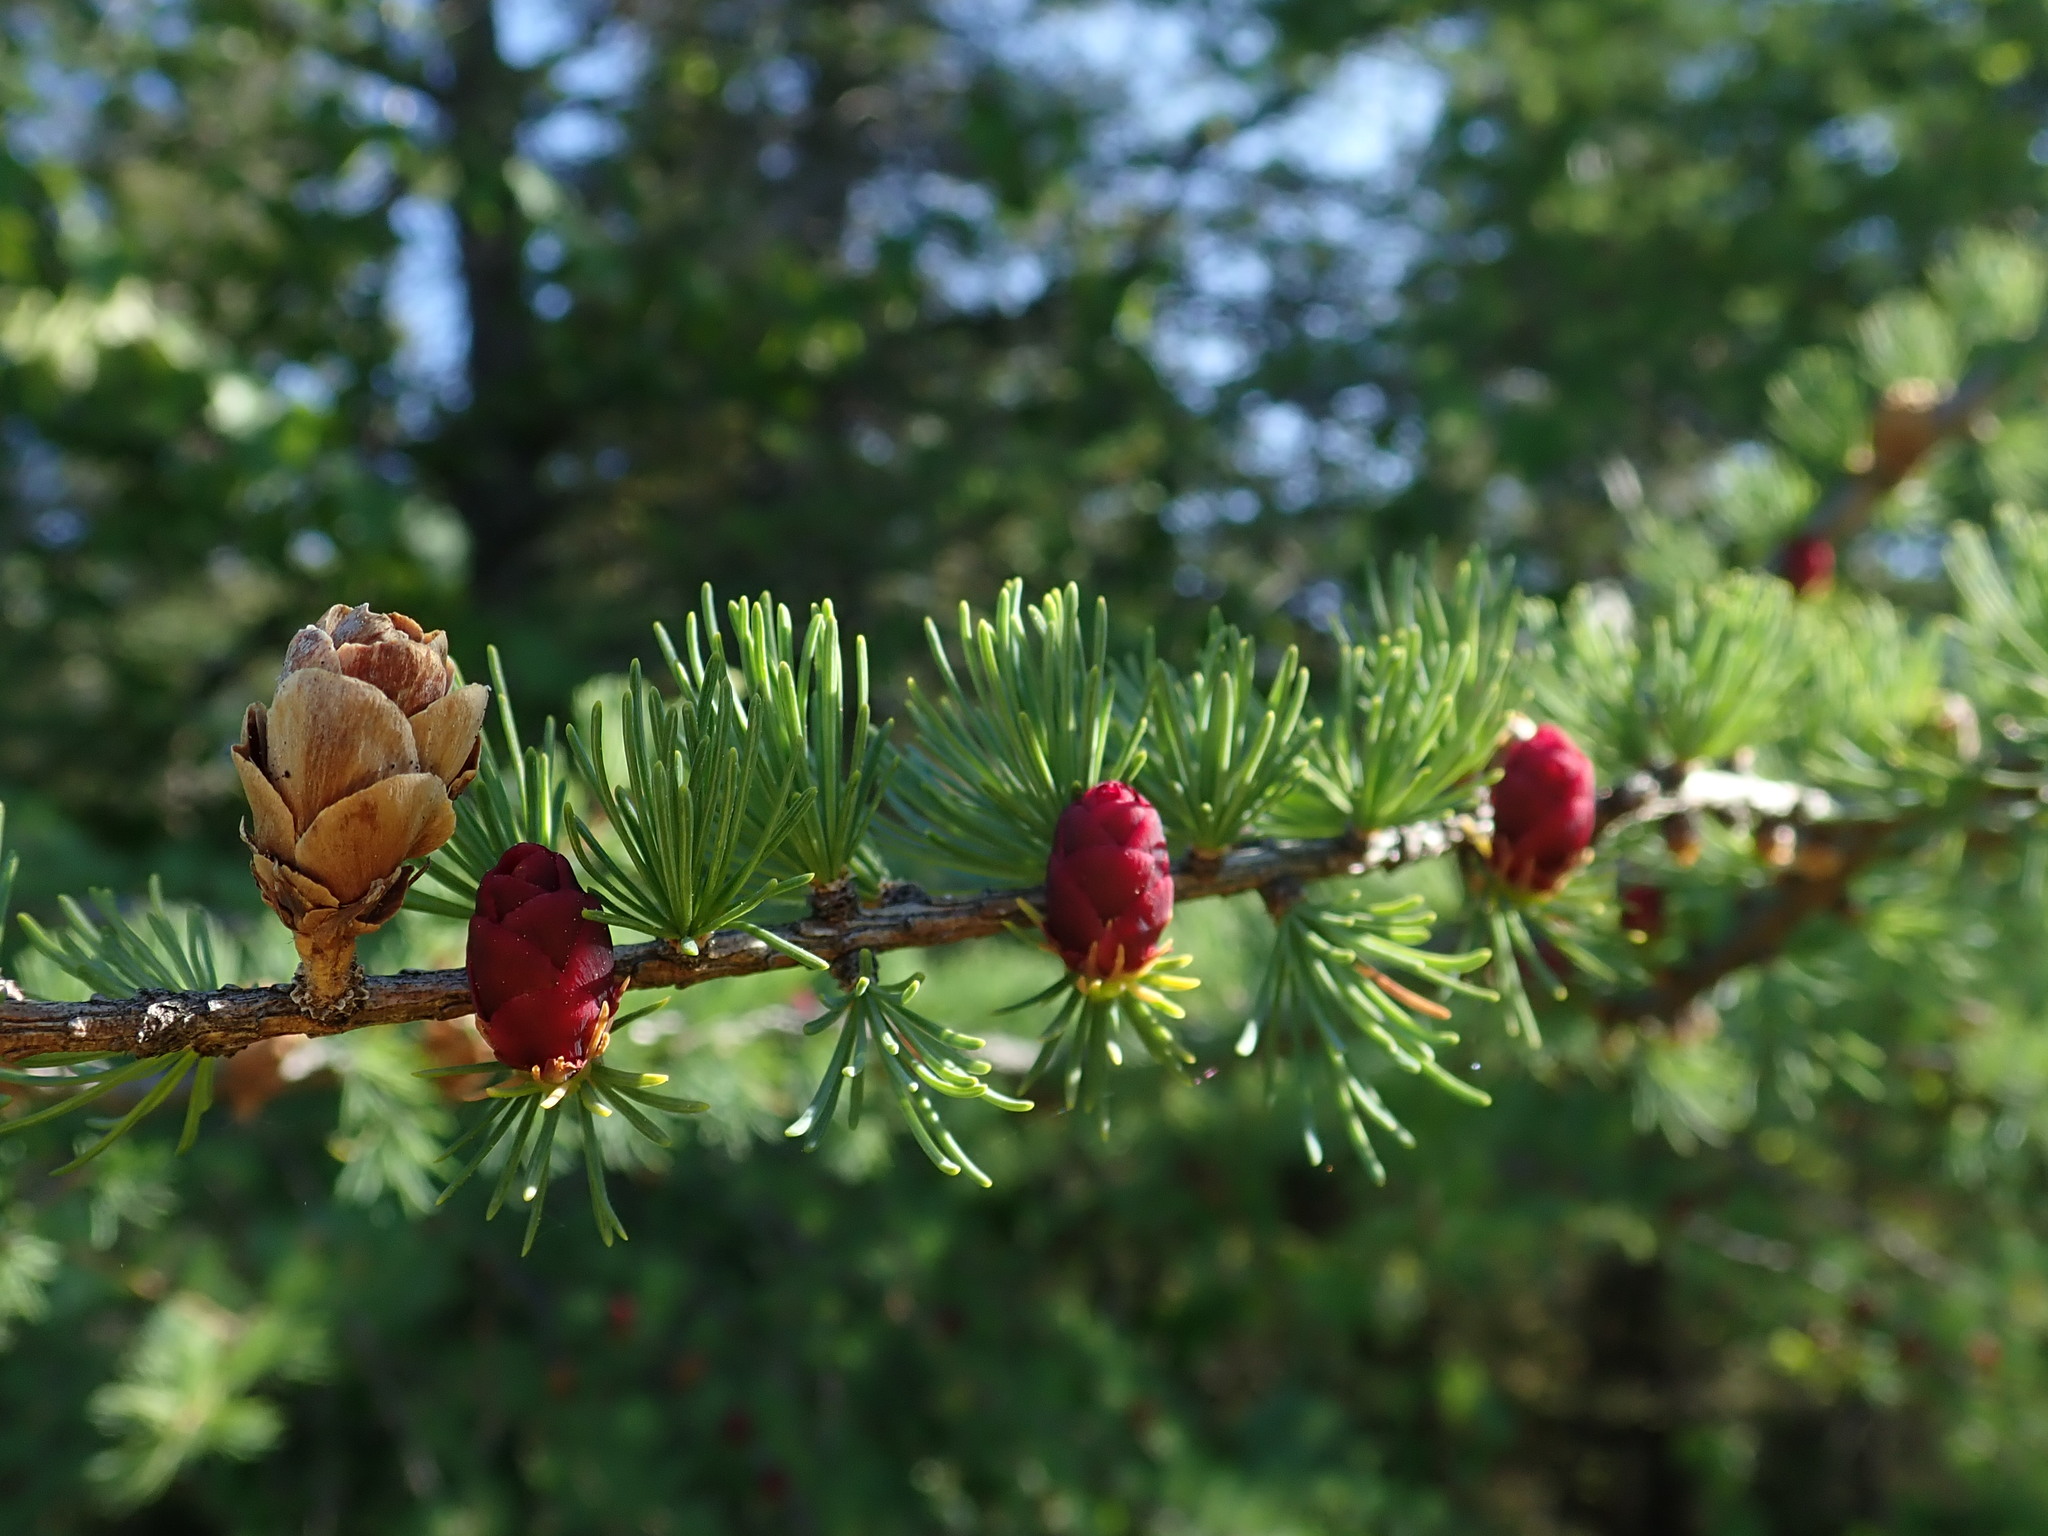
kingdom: Plantae
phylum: Tracheophyta
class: Pinopsida
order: Pinales
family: Pinaceae
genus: Larix
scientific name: Larix laricina
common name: American larch
